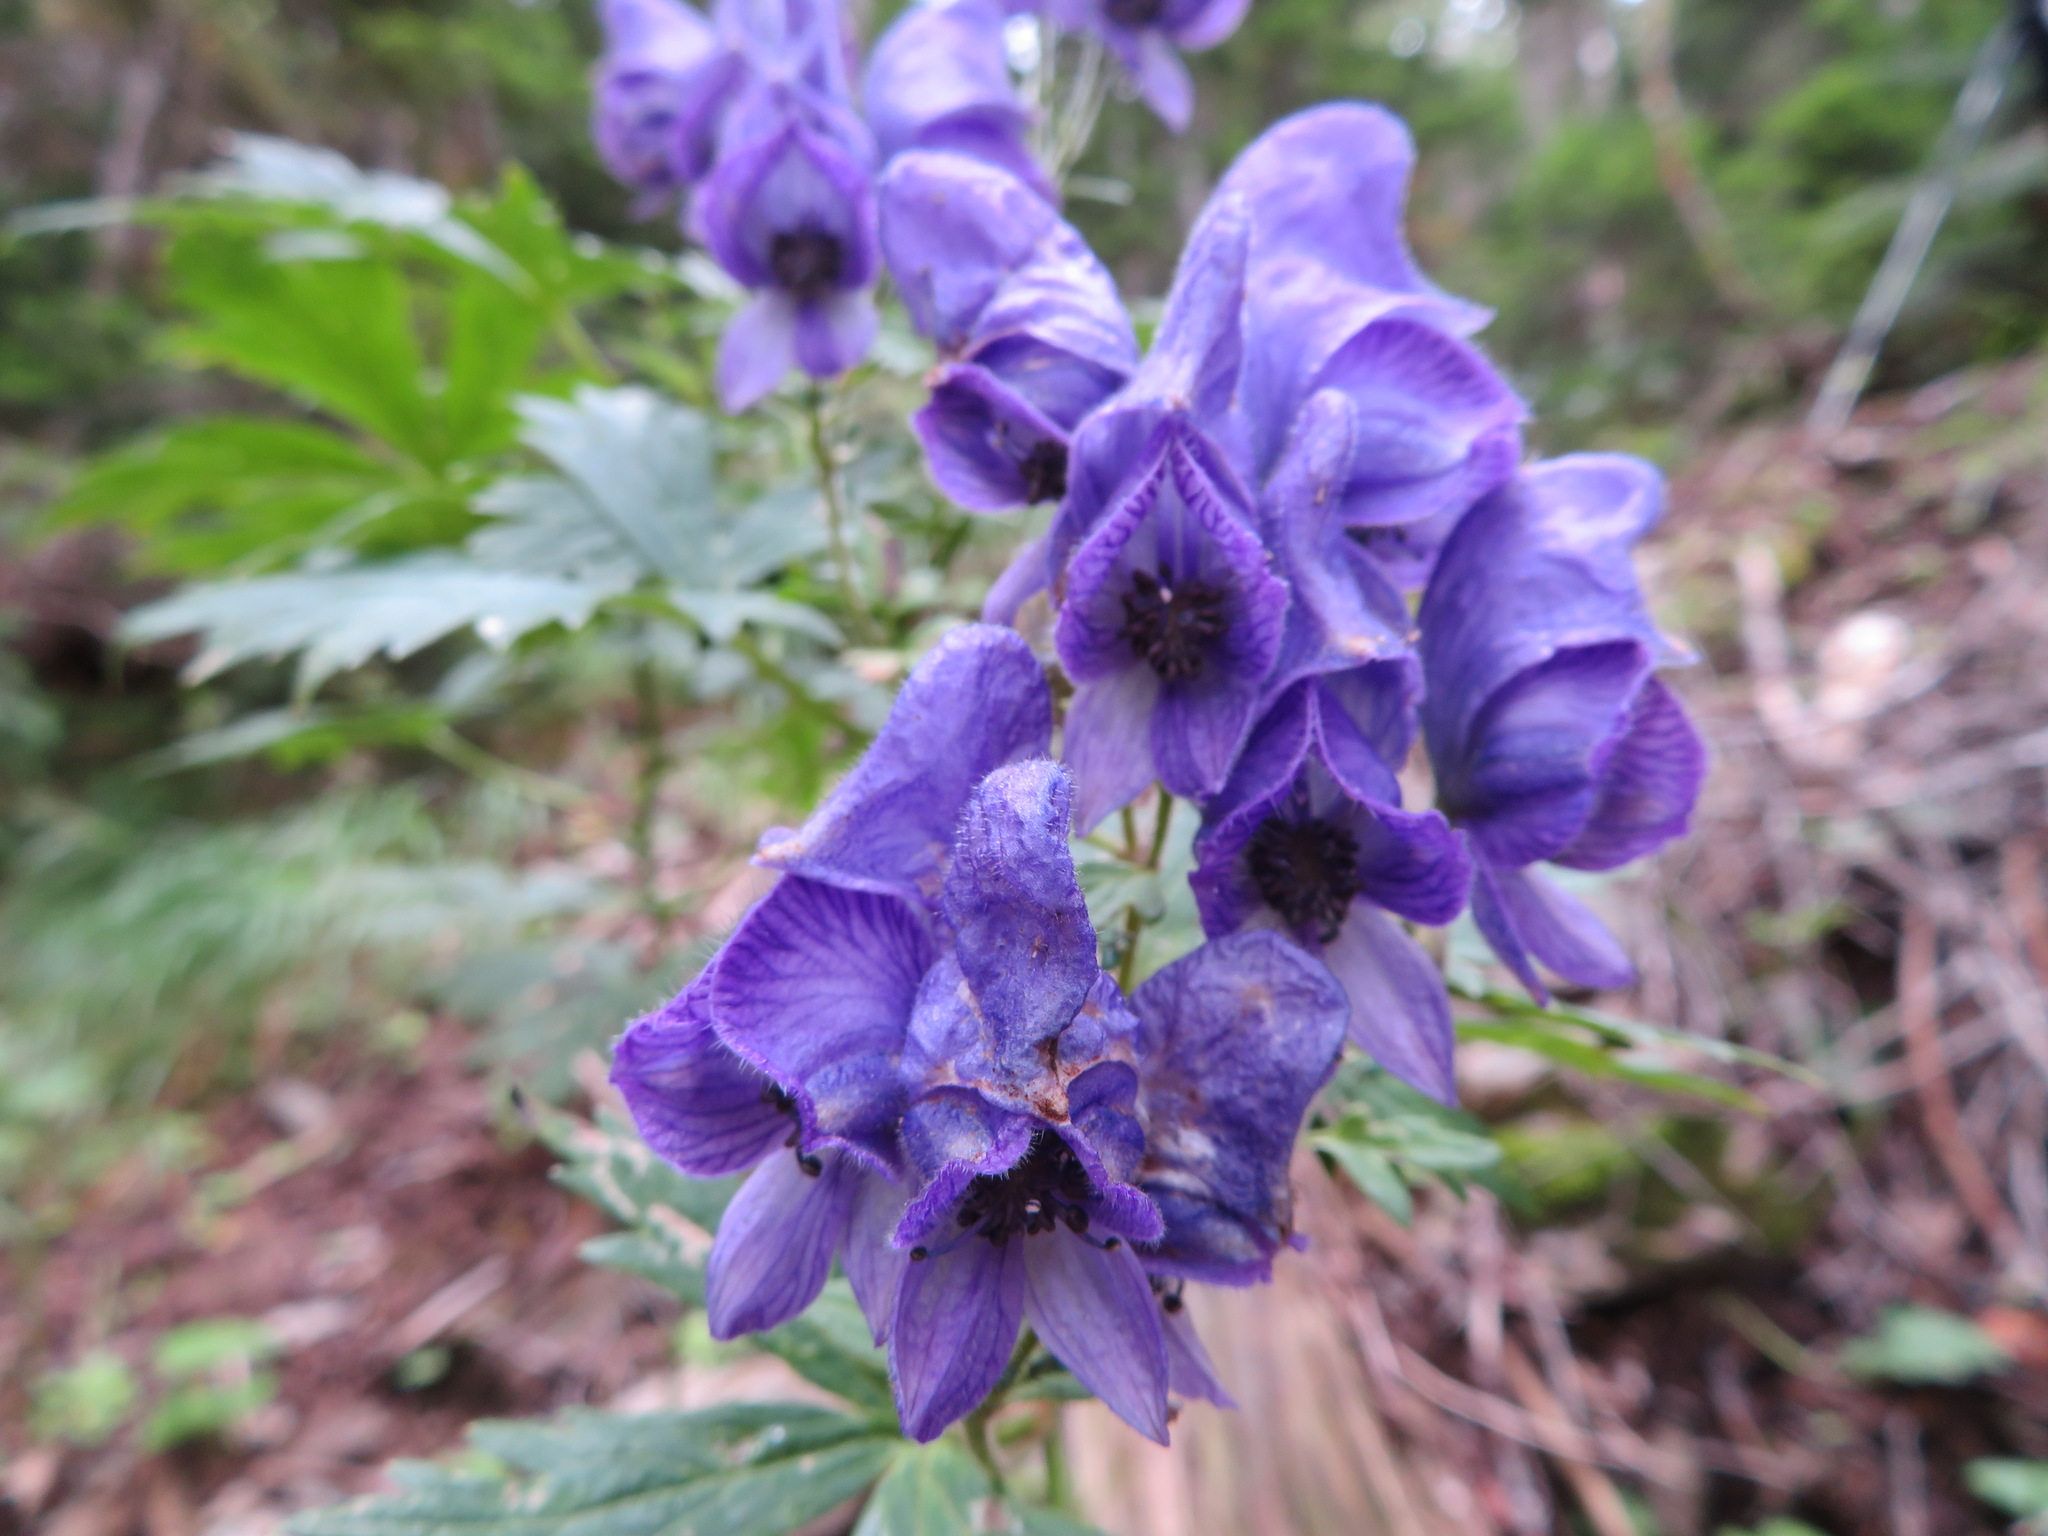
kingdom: Plantae
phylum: Tracheophyta
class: Magnoliopsida
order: Ranunculales
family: Ranunculaceae
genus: Aconitum
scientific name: Aconitum senanense
